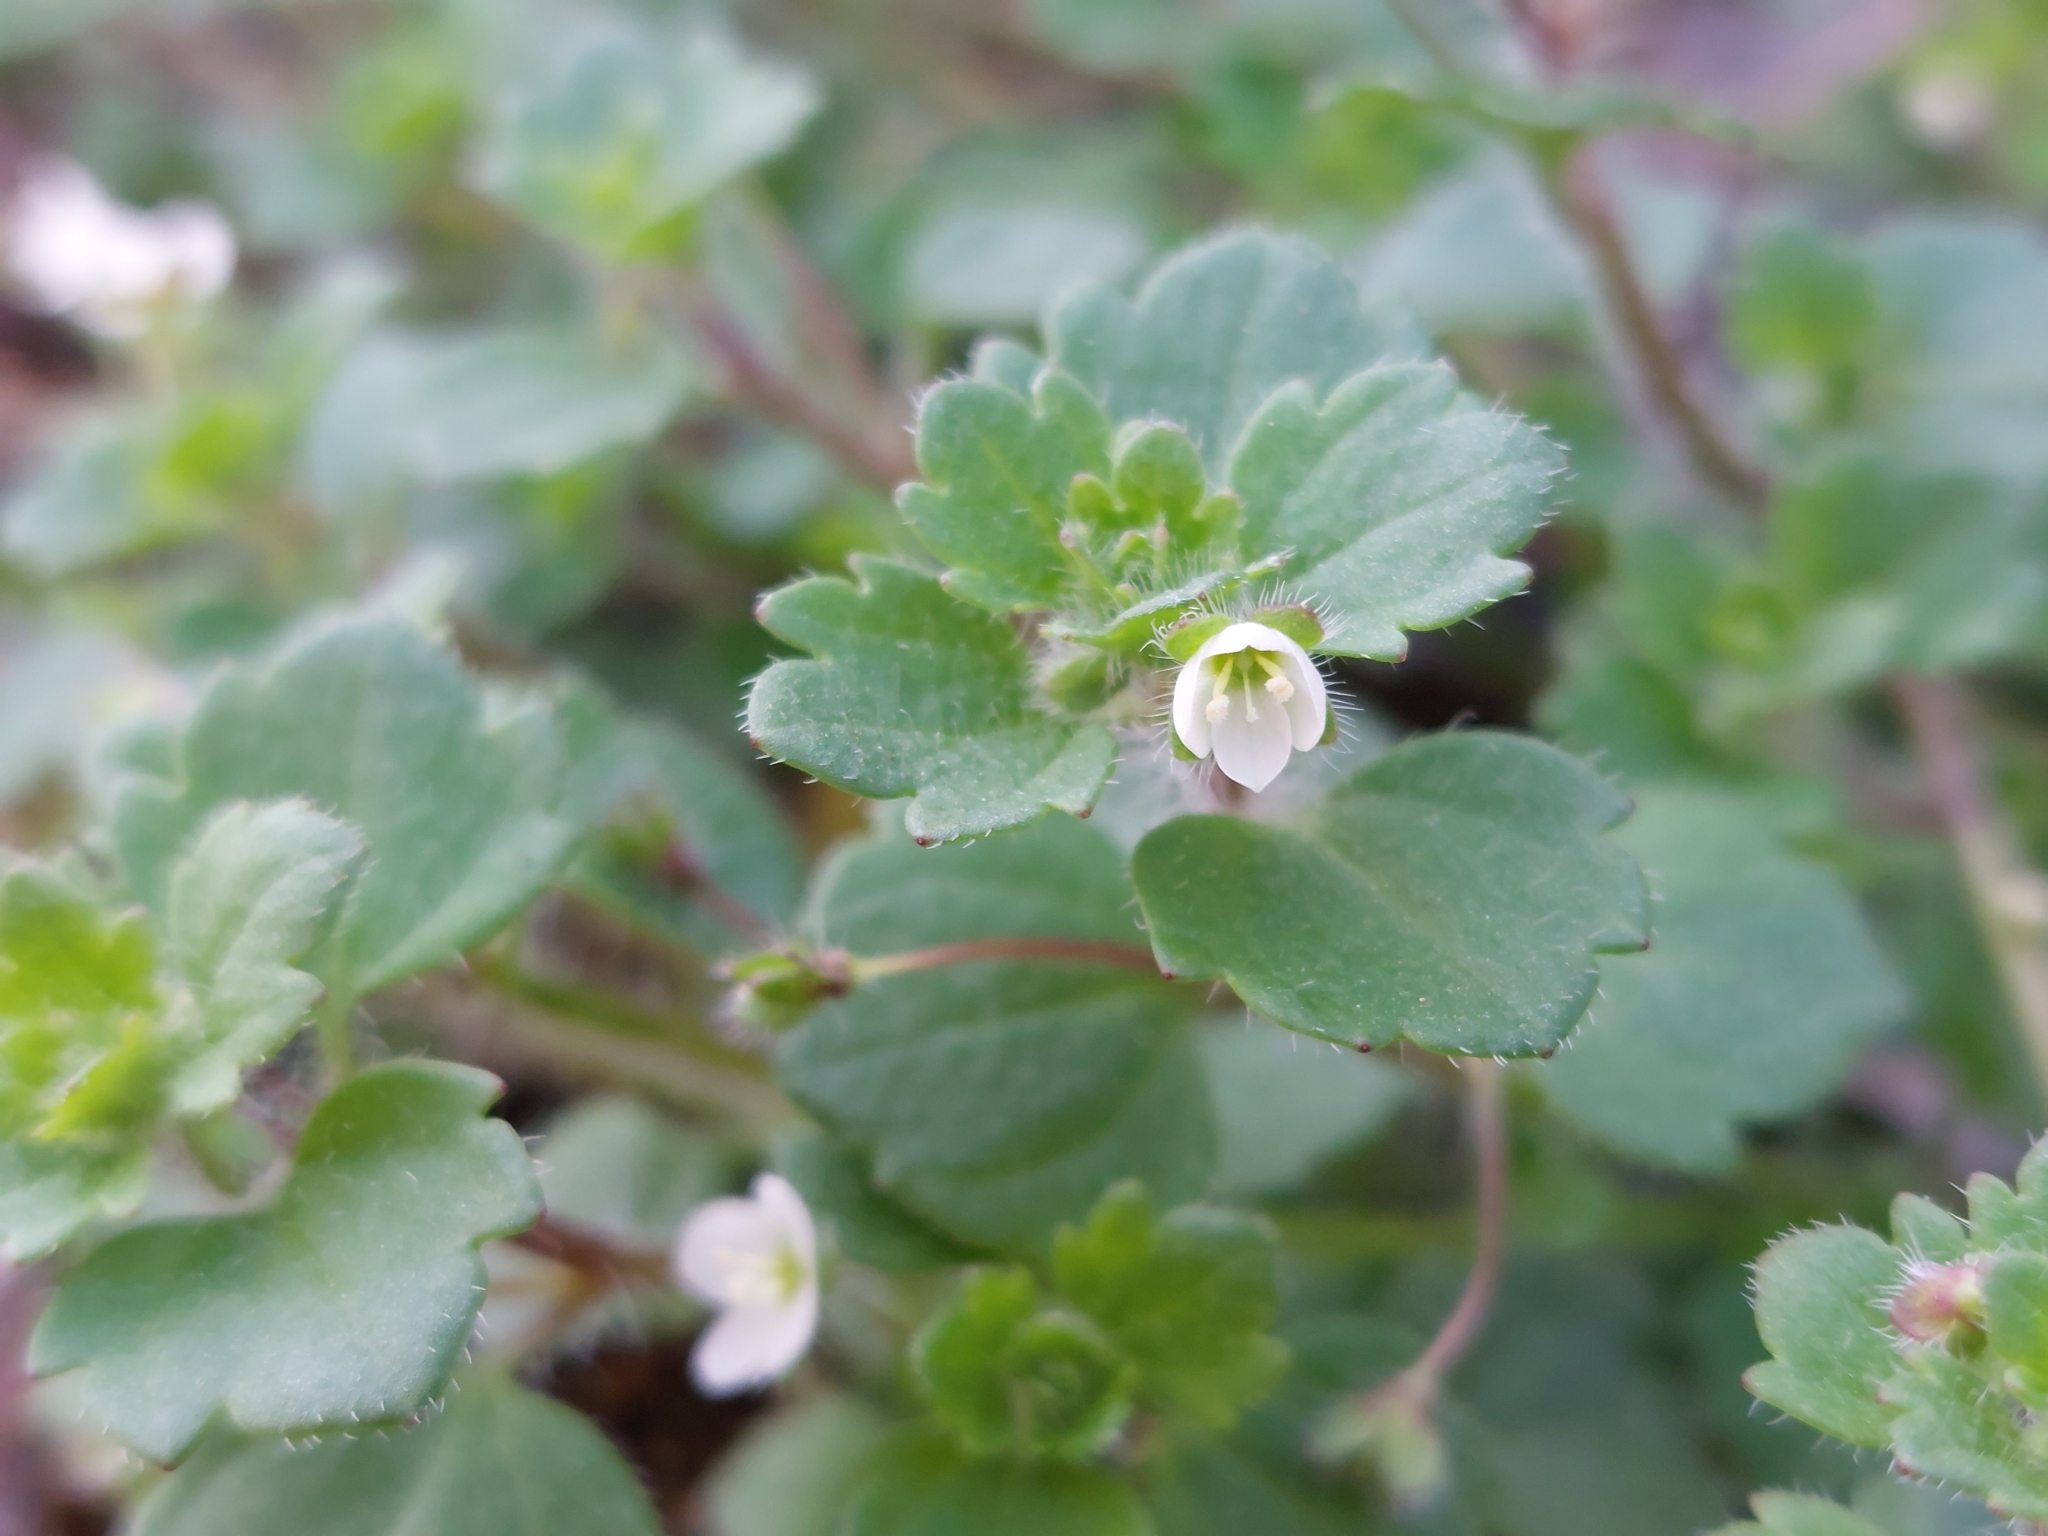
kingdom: Plantae
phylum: Tracheophyta
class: Magnoliopsida
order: Lamiales
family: Plantaginaceae
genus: Veronica
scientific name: Veronica cymbalaria
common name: Pale speedwell
